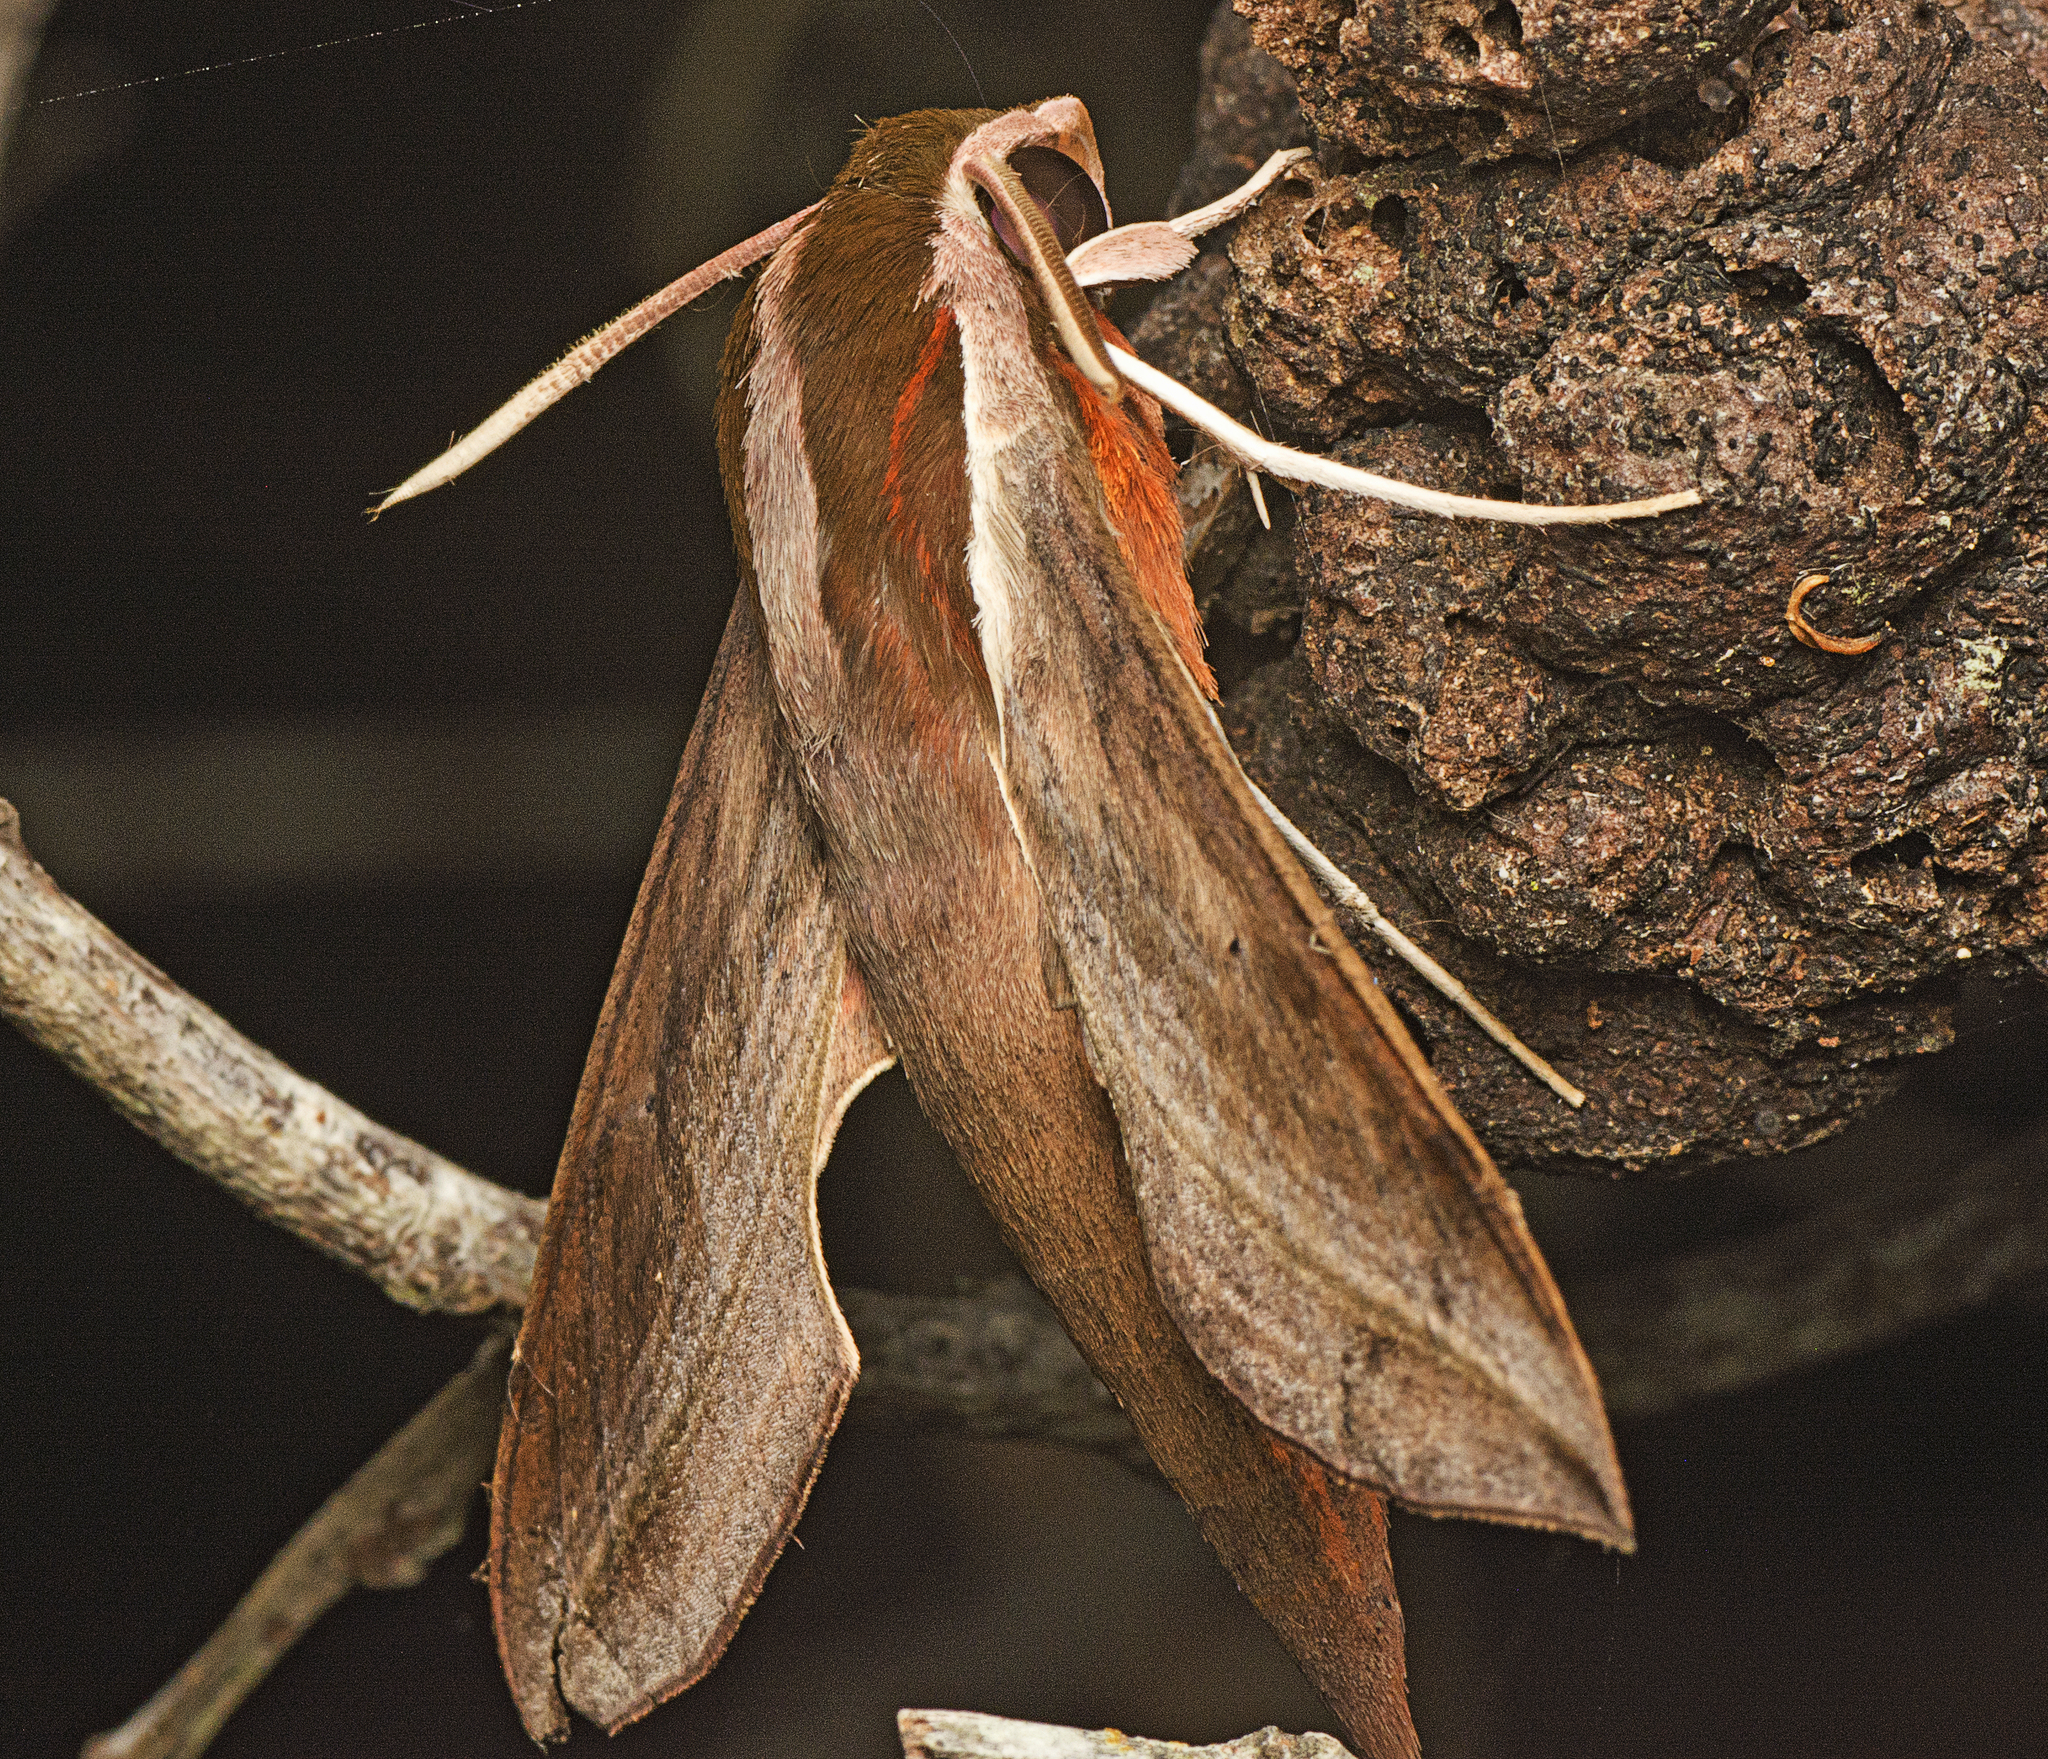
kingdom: Animalia
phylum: Arthropoda
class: Insecta
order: Lepidoptera
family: Sphingidae
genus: Hippotion
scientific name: Hippotion rosetta
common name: Vine hawk moth
